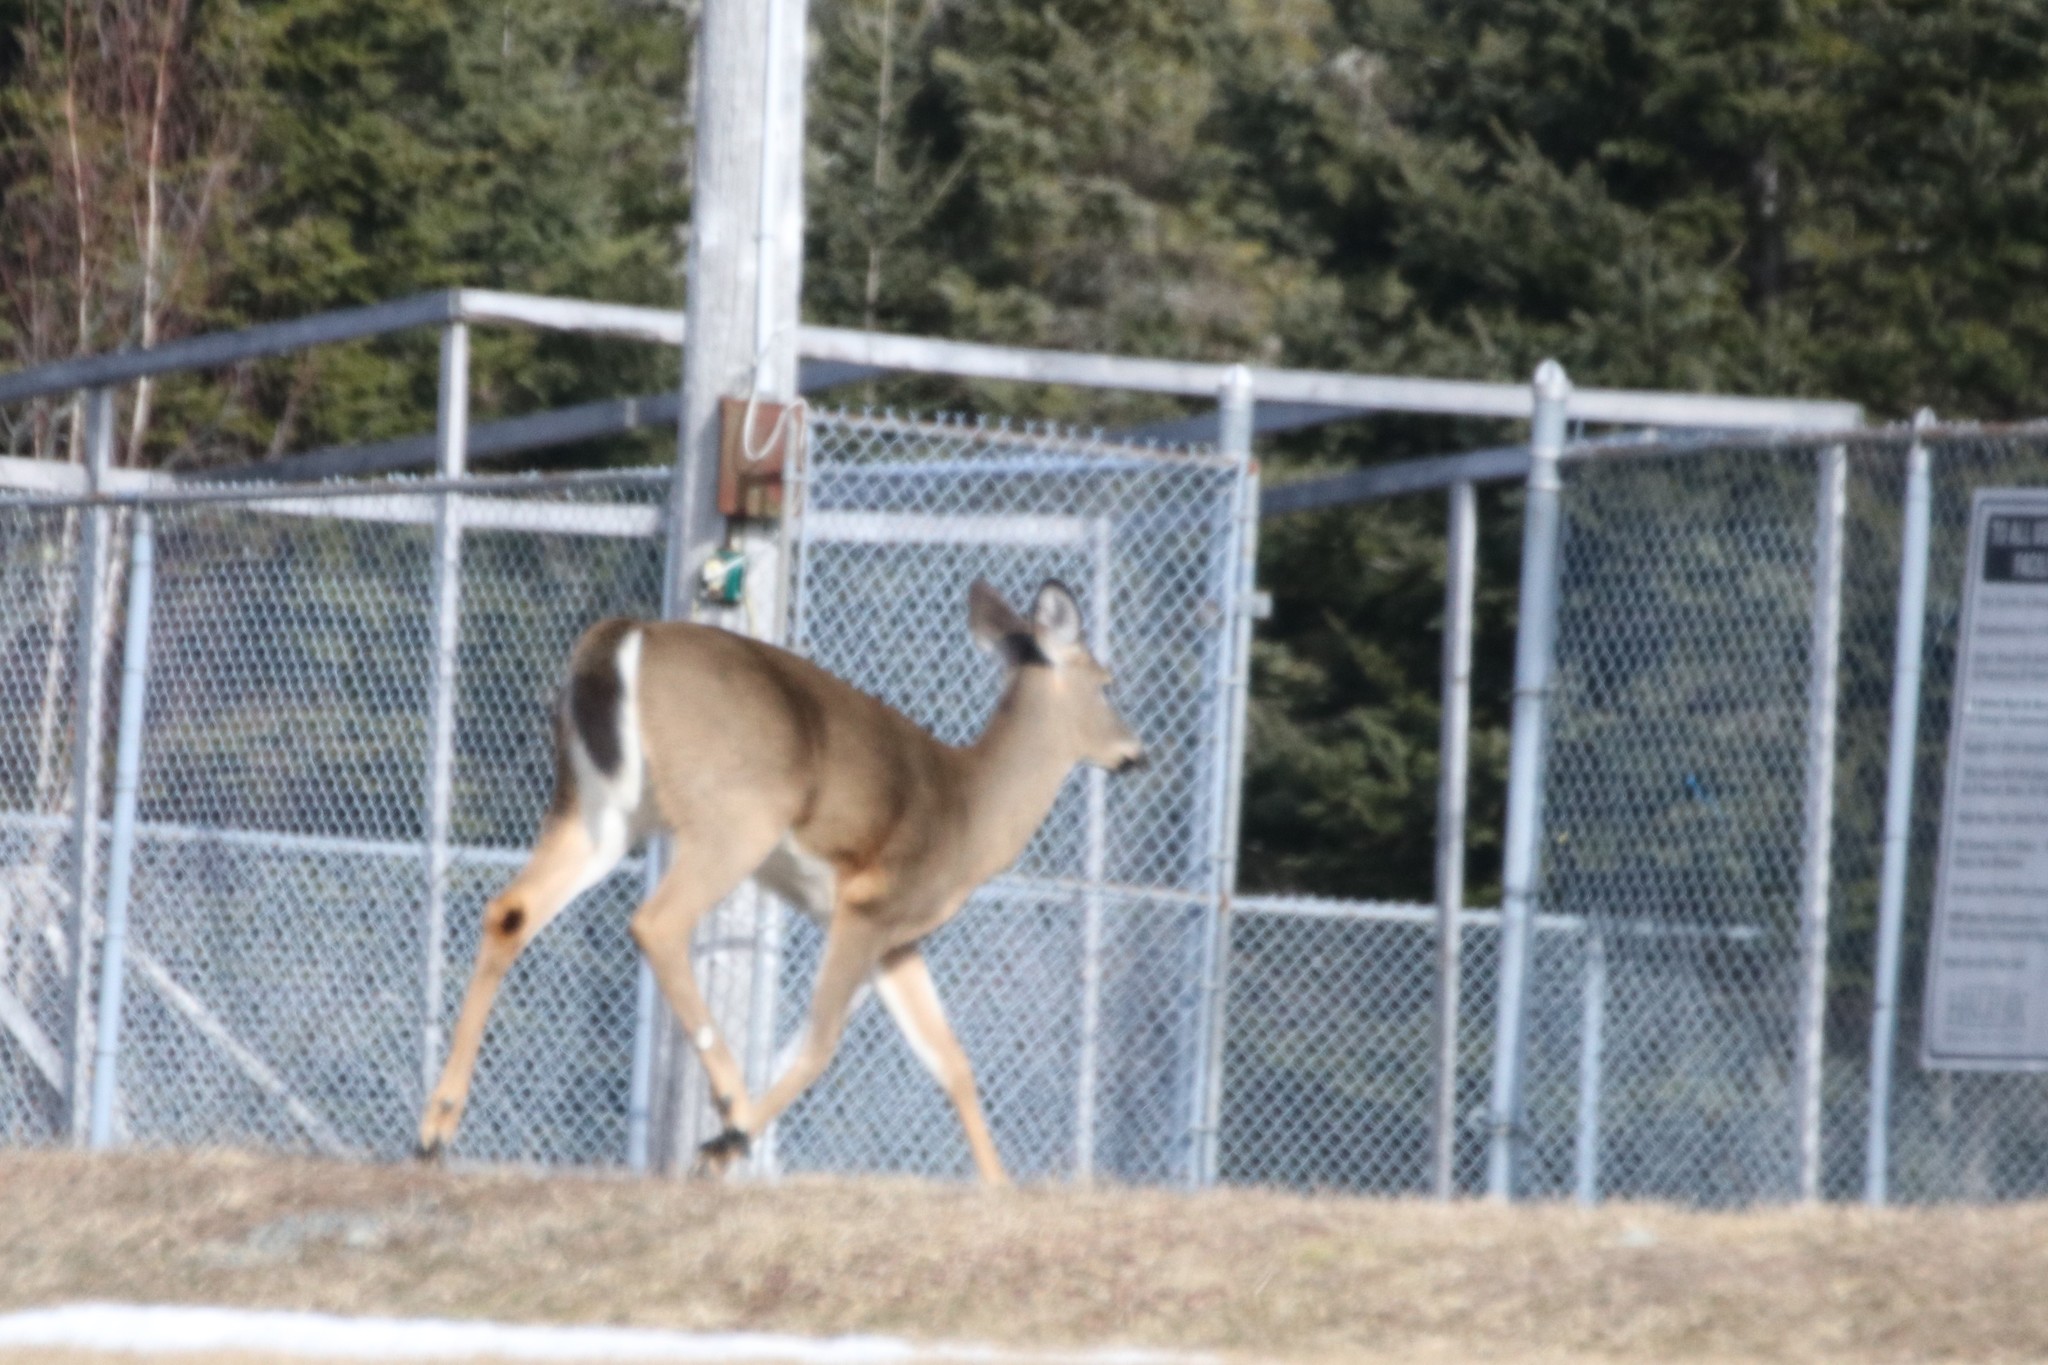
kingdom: Animalia
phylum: Chordata
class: Mammalia
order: Artiodactyla
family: Cervidae
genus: Odocoileus
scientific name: Odocoileus virginianus
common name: White-tailed deer
